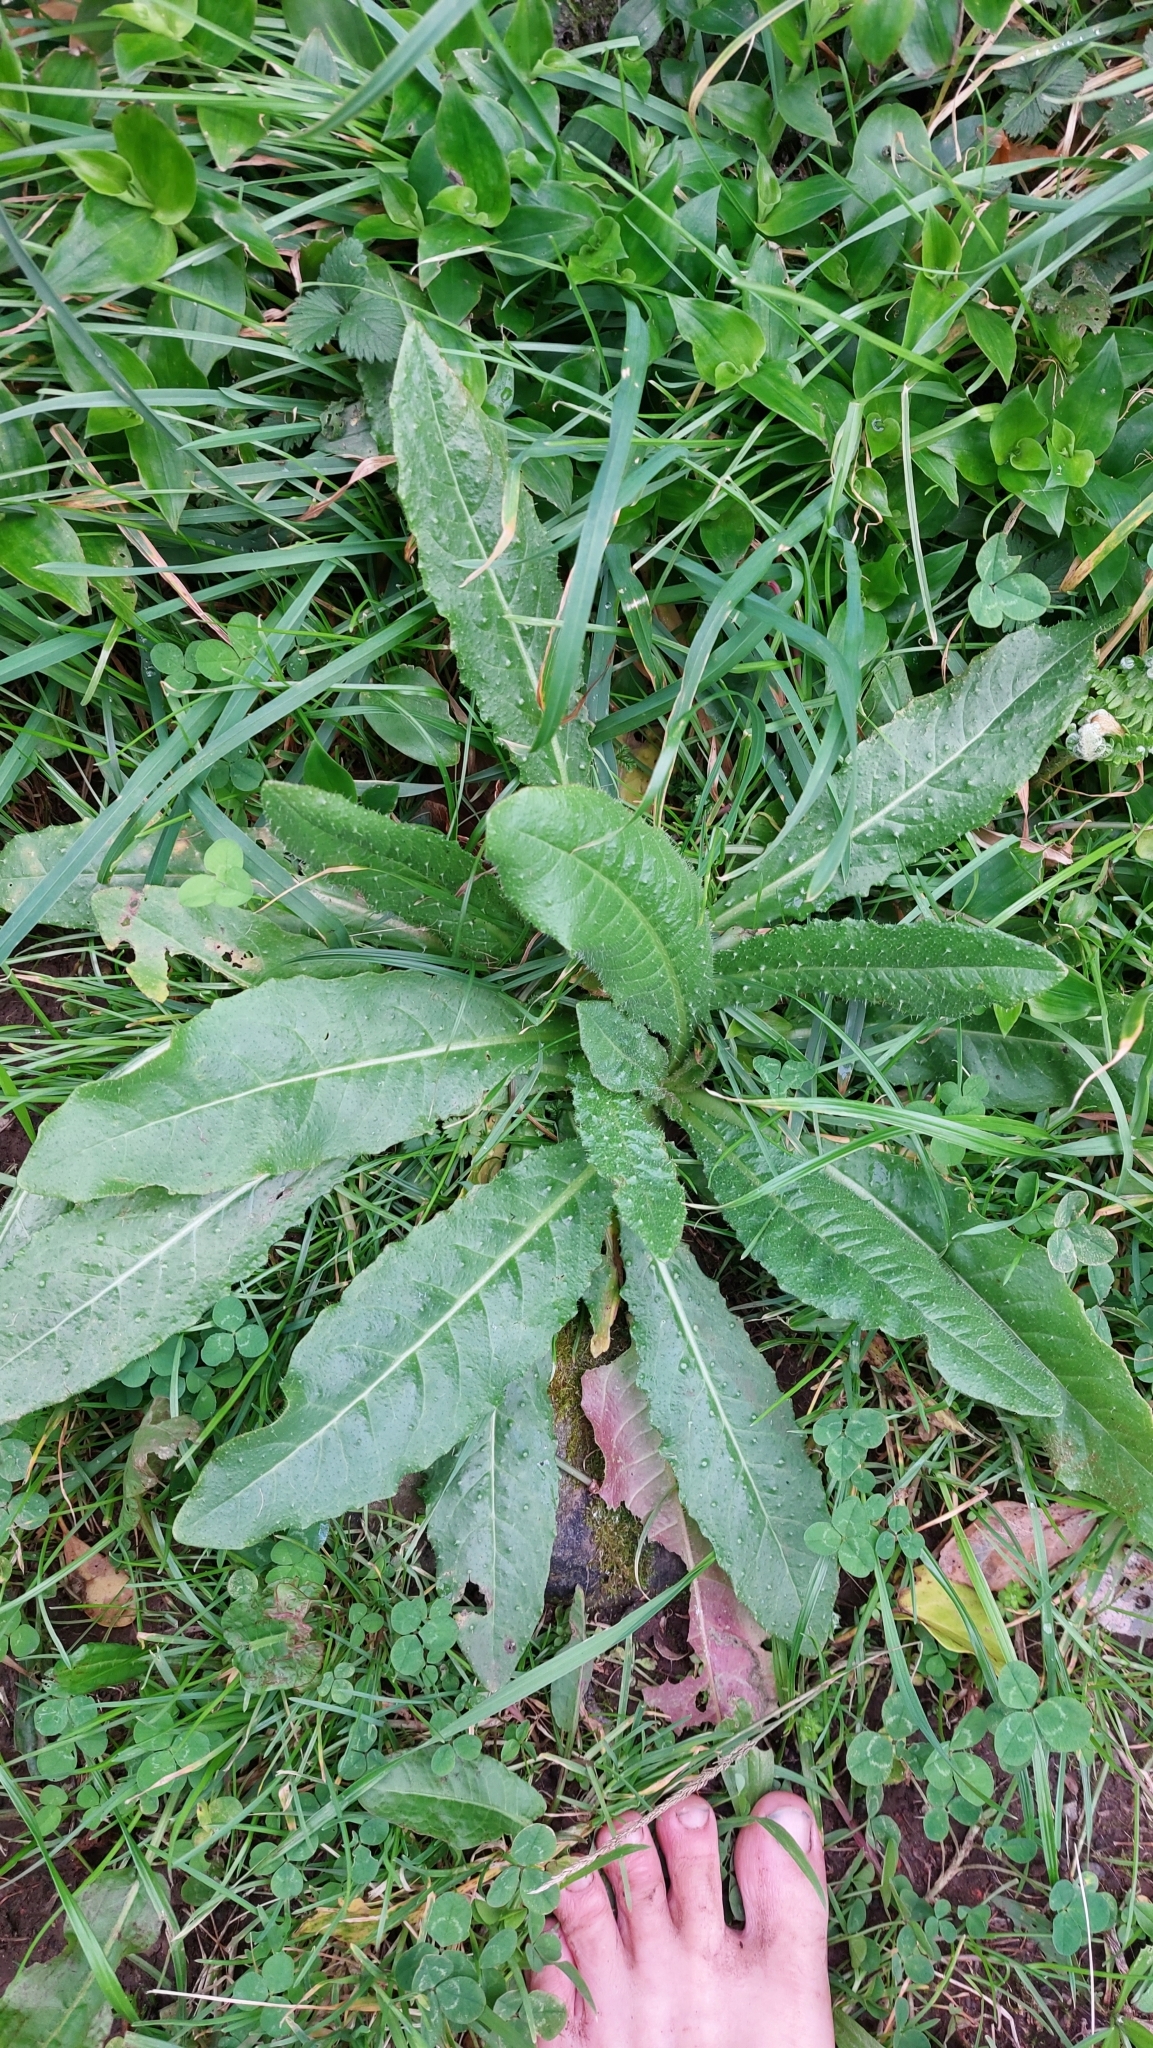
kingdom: Plantae
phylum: Tracheophyta
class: Magnoliopsida
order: Asterales
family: Asteraceae
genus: Helminthotheca
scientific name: Helminthotheca echioides
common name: Ox-tongue
